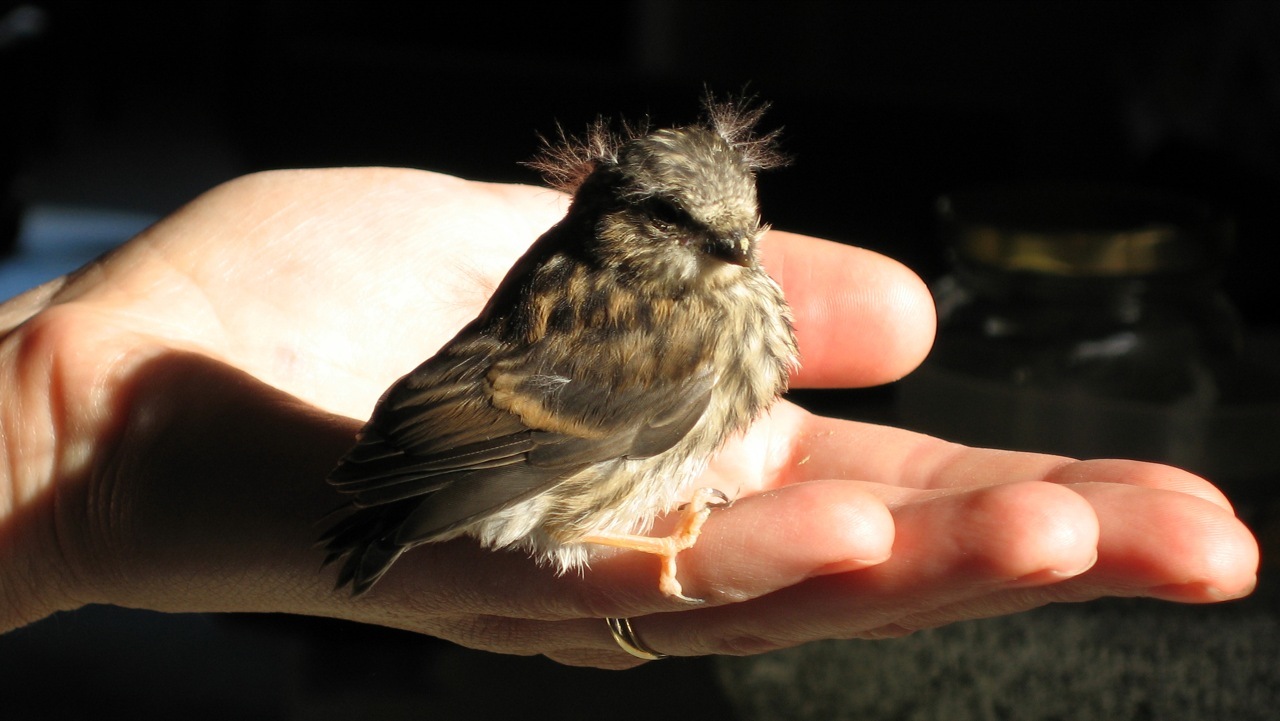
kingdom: Animalia
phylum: Chordata
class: Aves
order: Passeriformes
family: Fringillidae
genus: Acanthis
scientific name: Acanthis flammea
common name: Common redpoll
